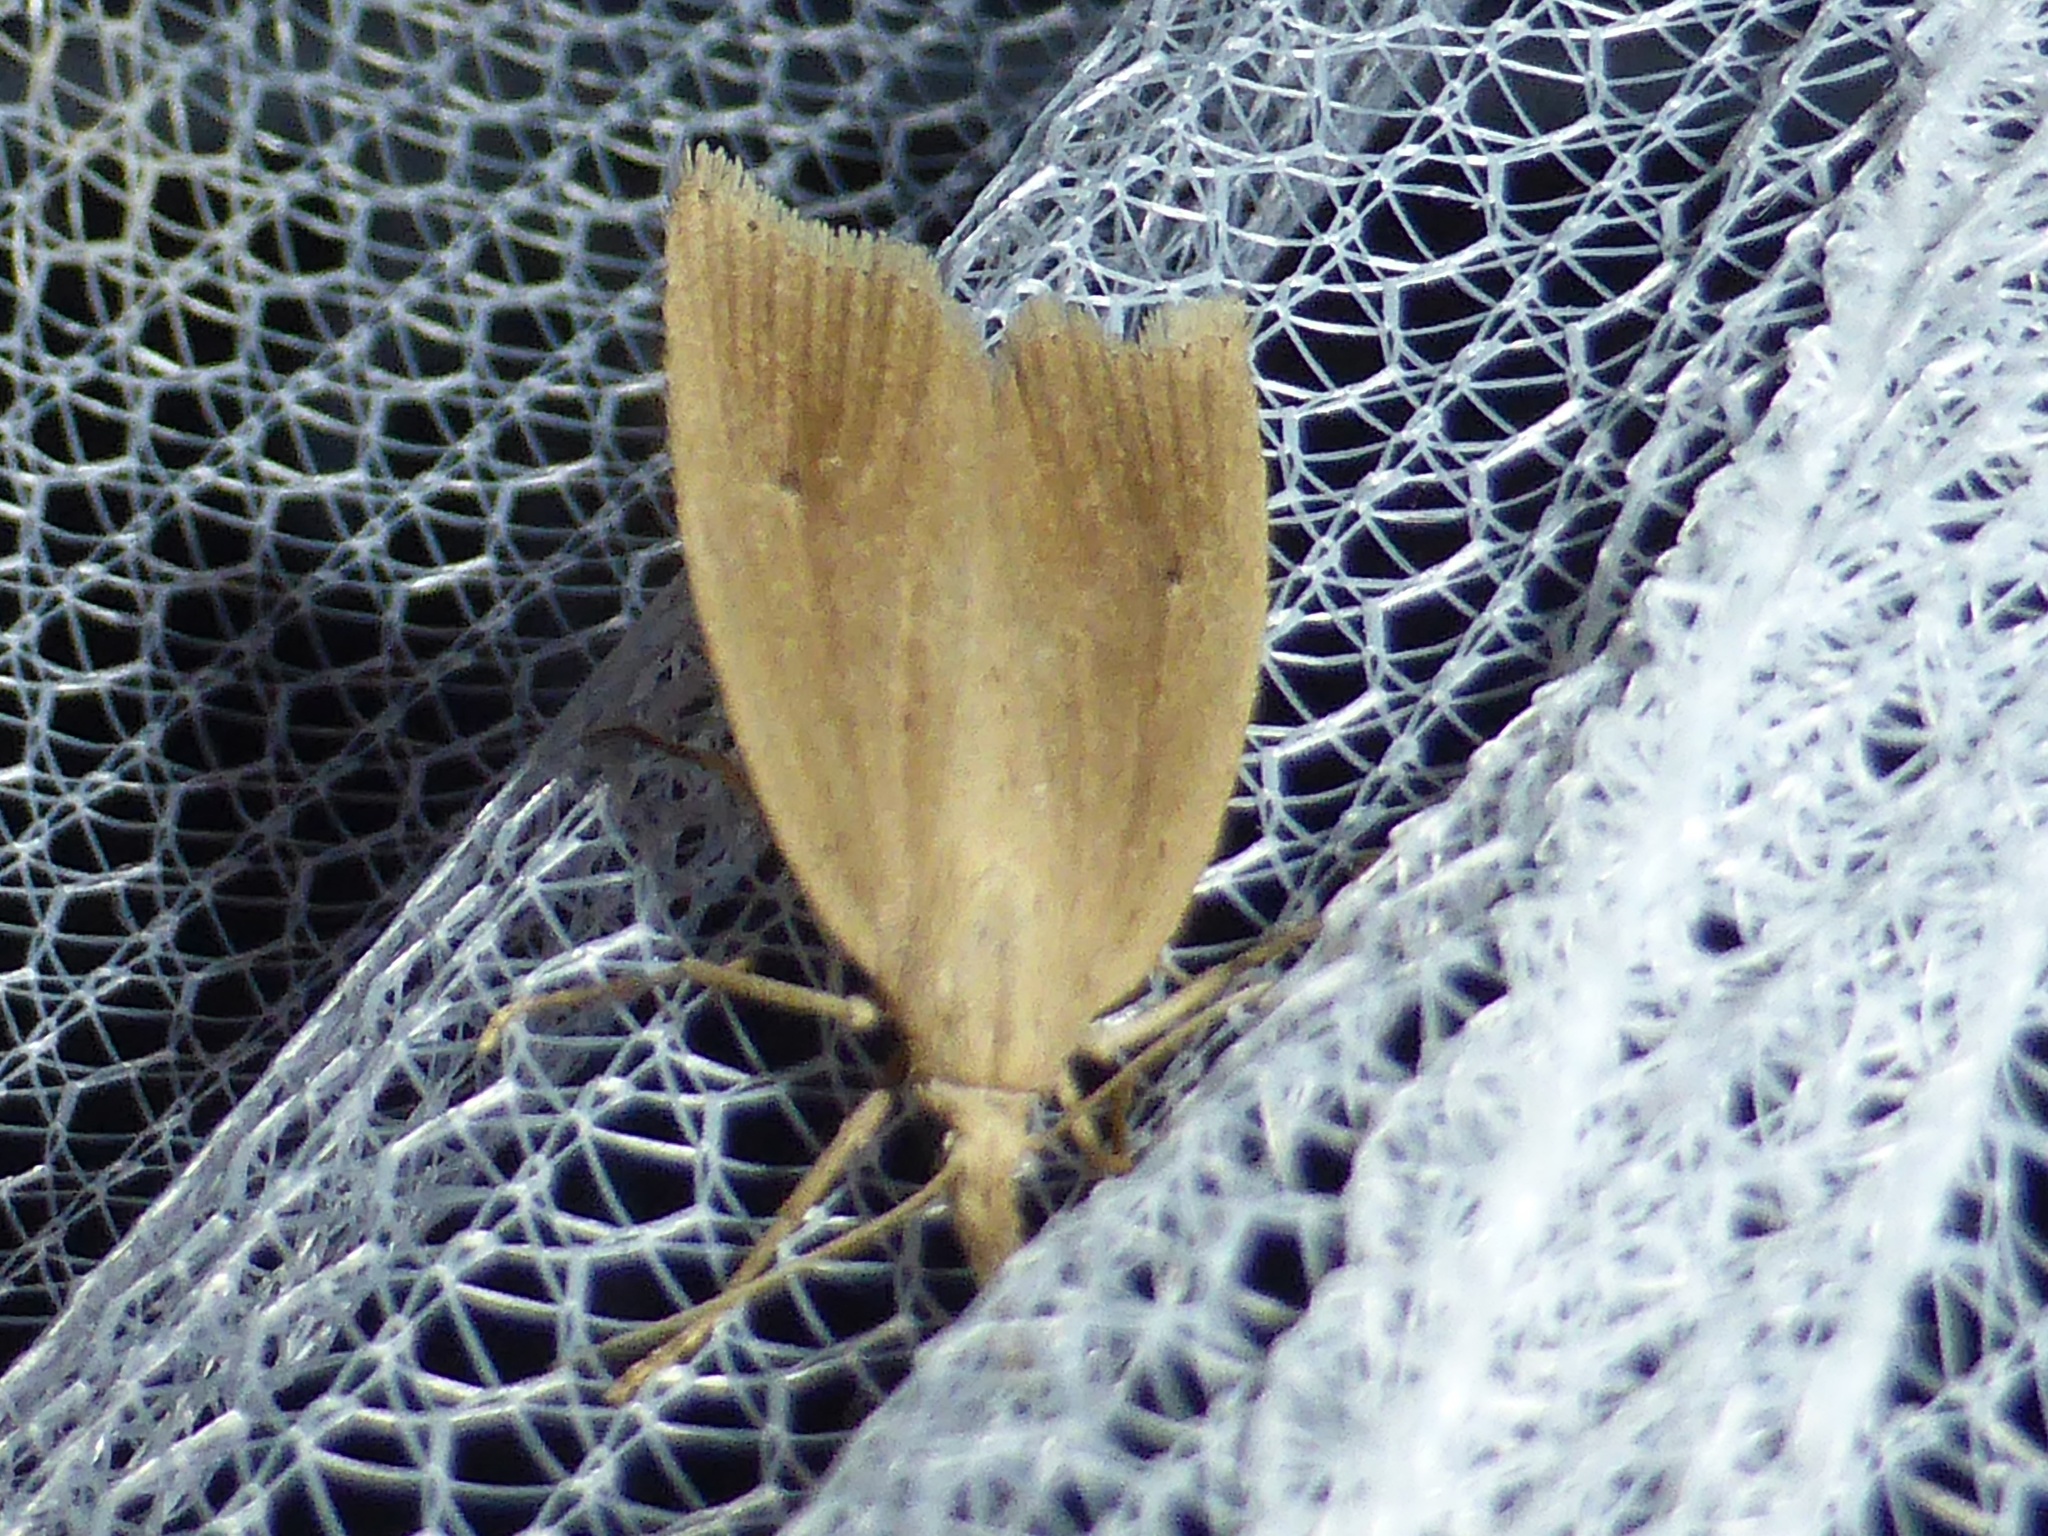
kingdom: Animalia
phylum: Arthropoda
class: Insecta
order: Lepidoptera
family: Crambidae
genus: Chilo
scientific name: Chilo phragmitella
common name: Reed veneer
